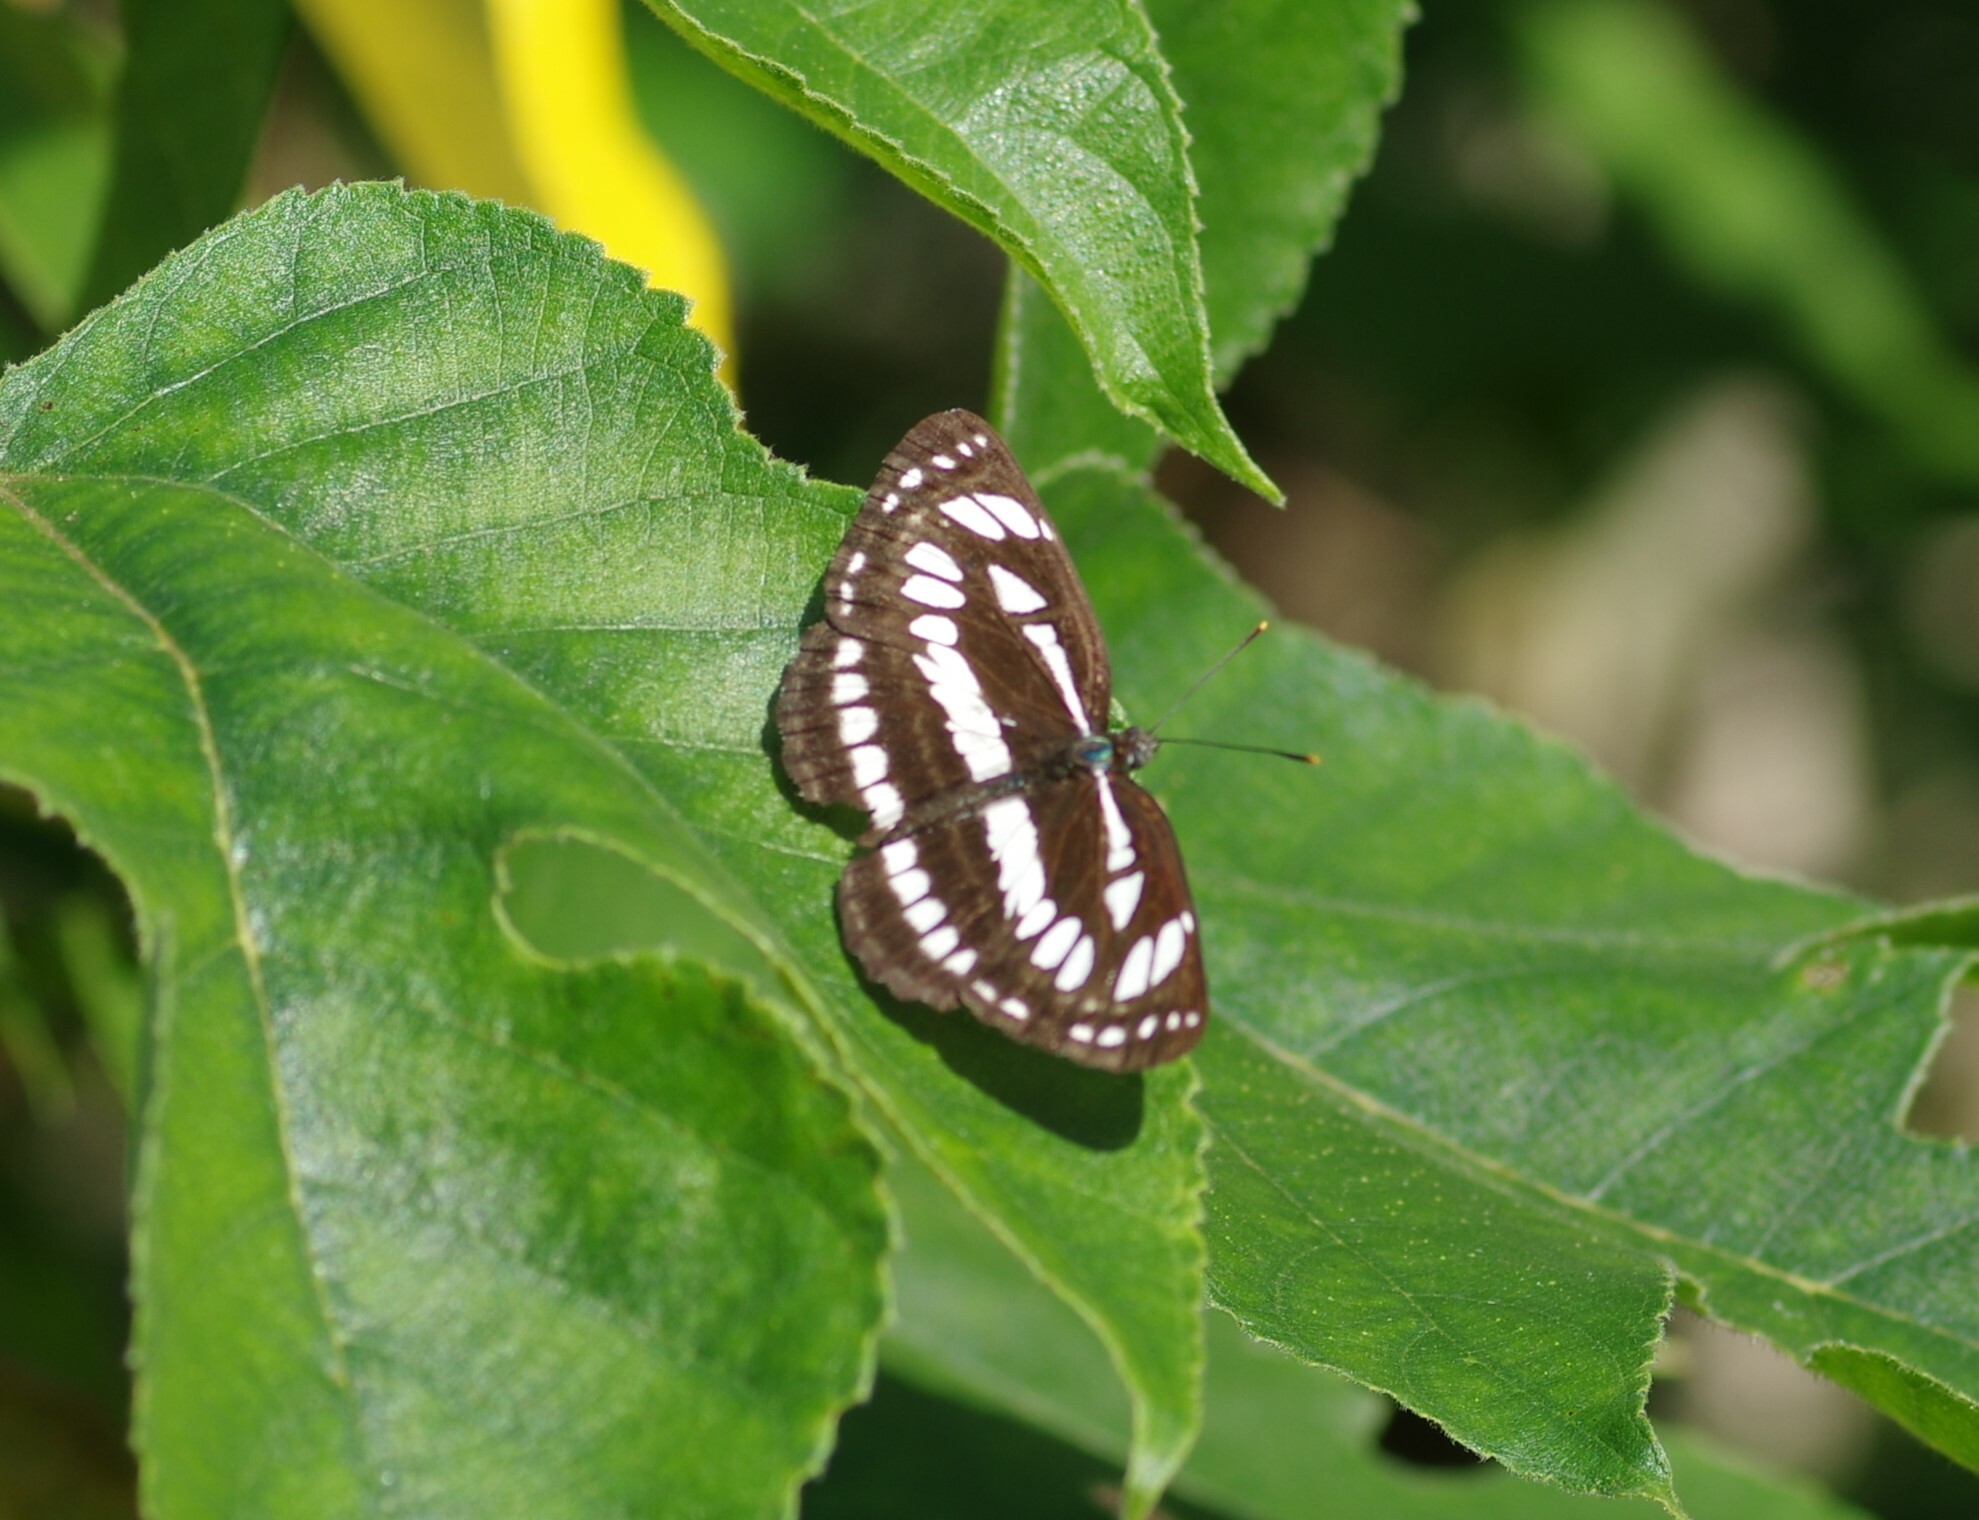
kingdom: Animalia
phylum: Arthropoda
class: Insecta
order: Lepidoptera
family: Nymphalidae
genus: Neptis
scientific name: Neptis hylas
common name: Common sailer
